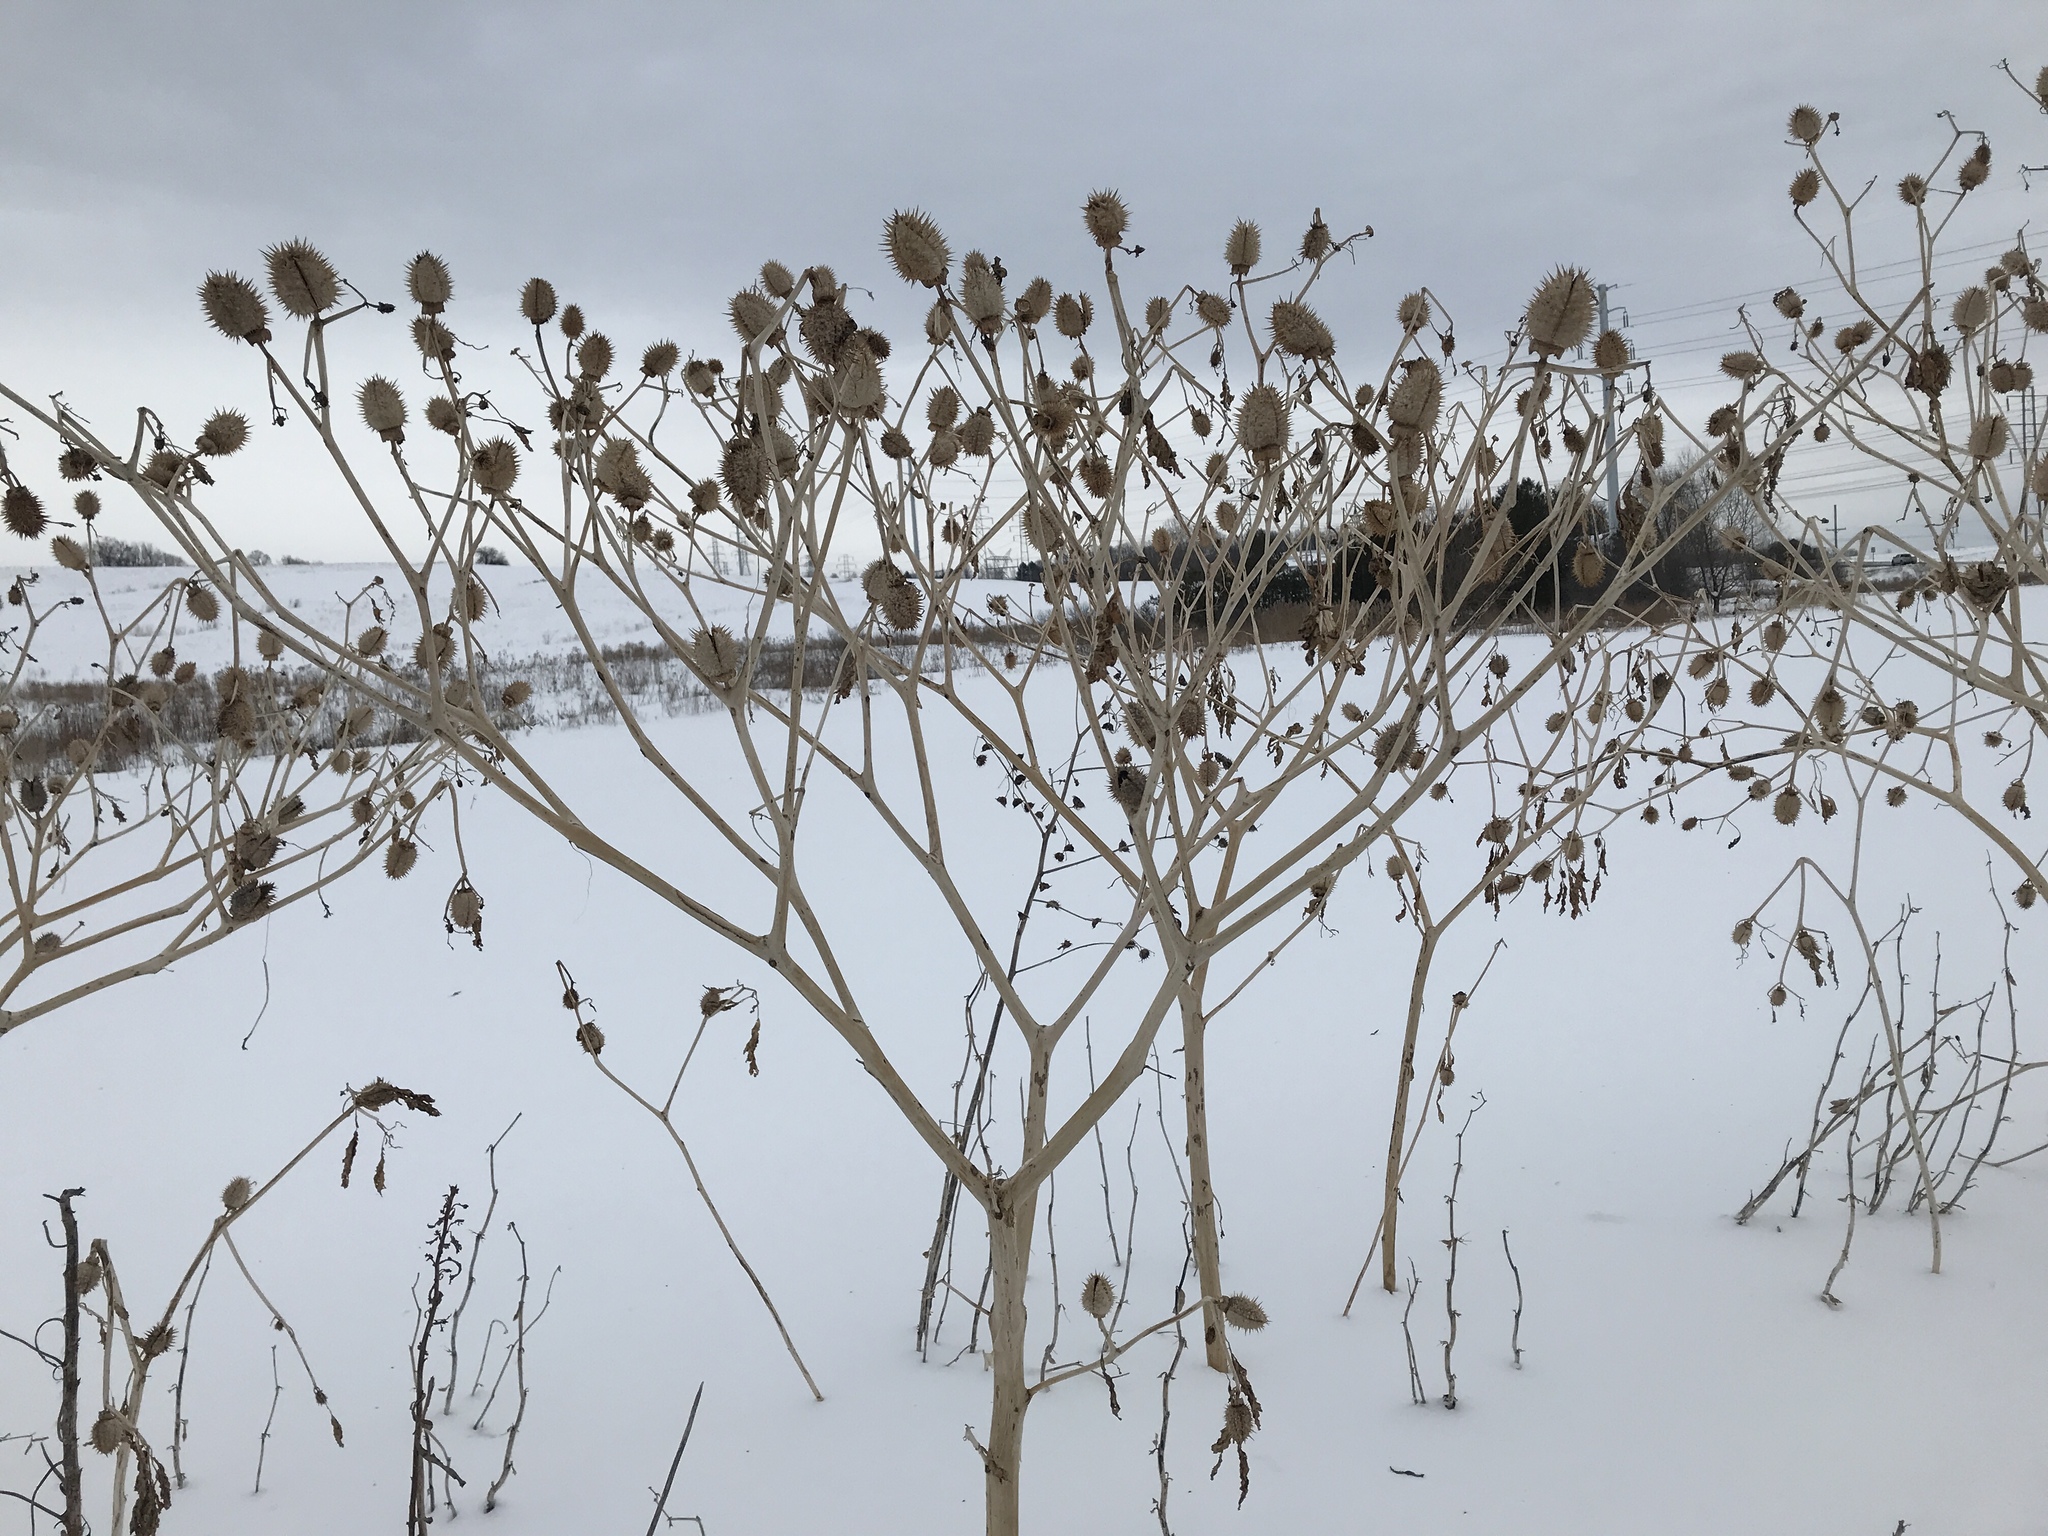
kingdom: Plantae
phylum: Tracheophyta
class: Magnoliopsida
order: Solanales
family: Solanaceae
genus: Datura
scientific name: Datura stramonium
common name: Thorn-apple
